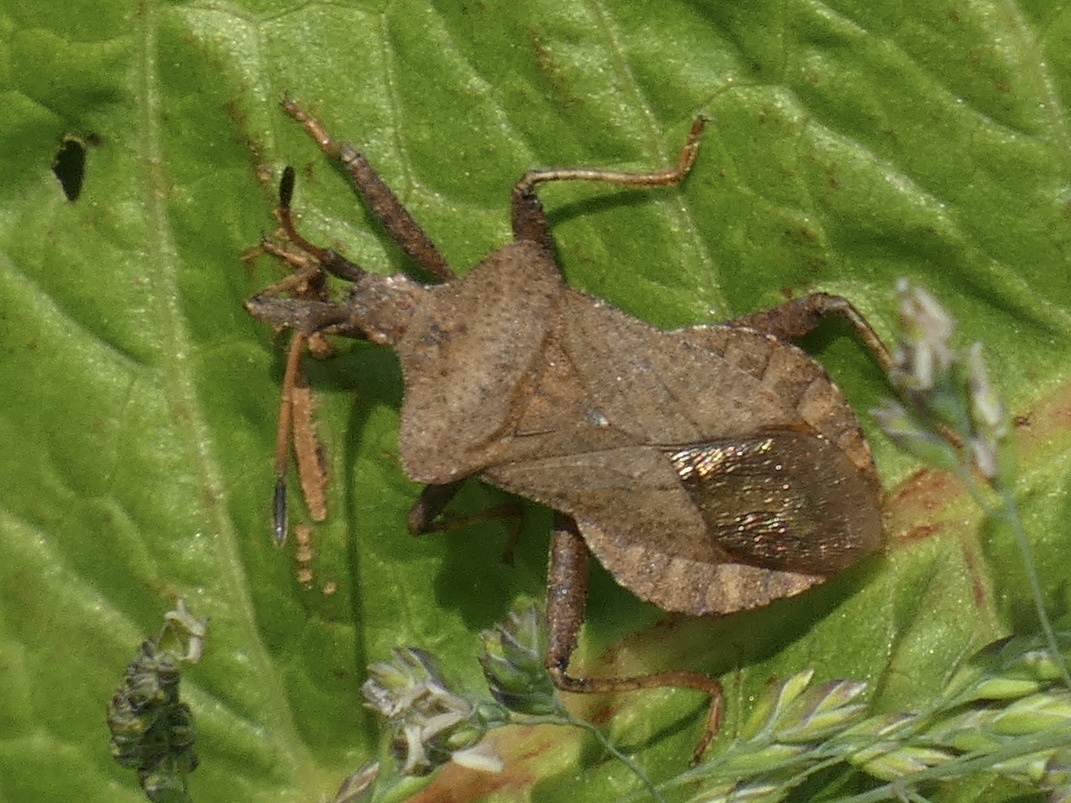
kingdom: Animalia
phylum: Arthropoda
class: Insecta
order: Hemiptera
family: Coreidae
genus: Coreus
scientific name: Coreus marginatus
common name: Dock bug
